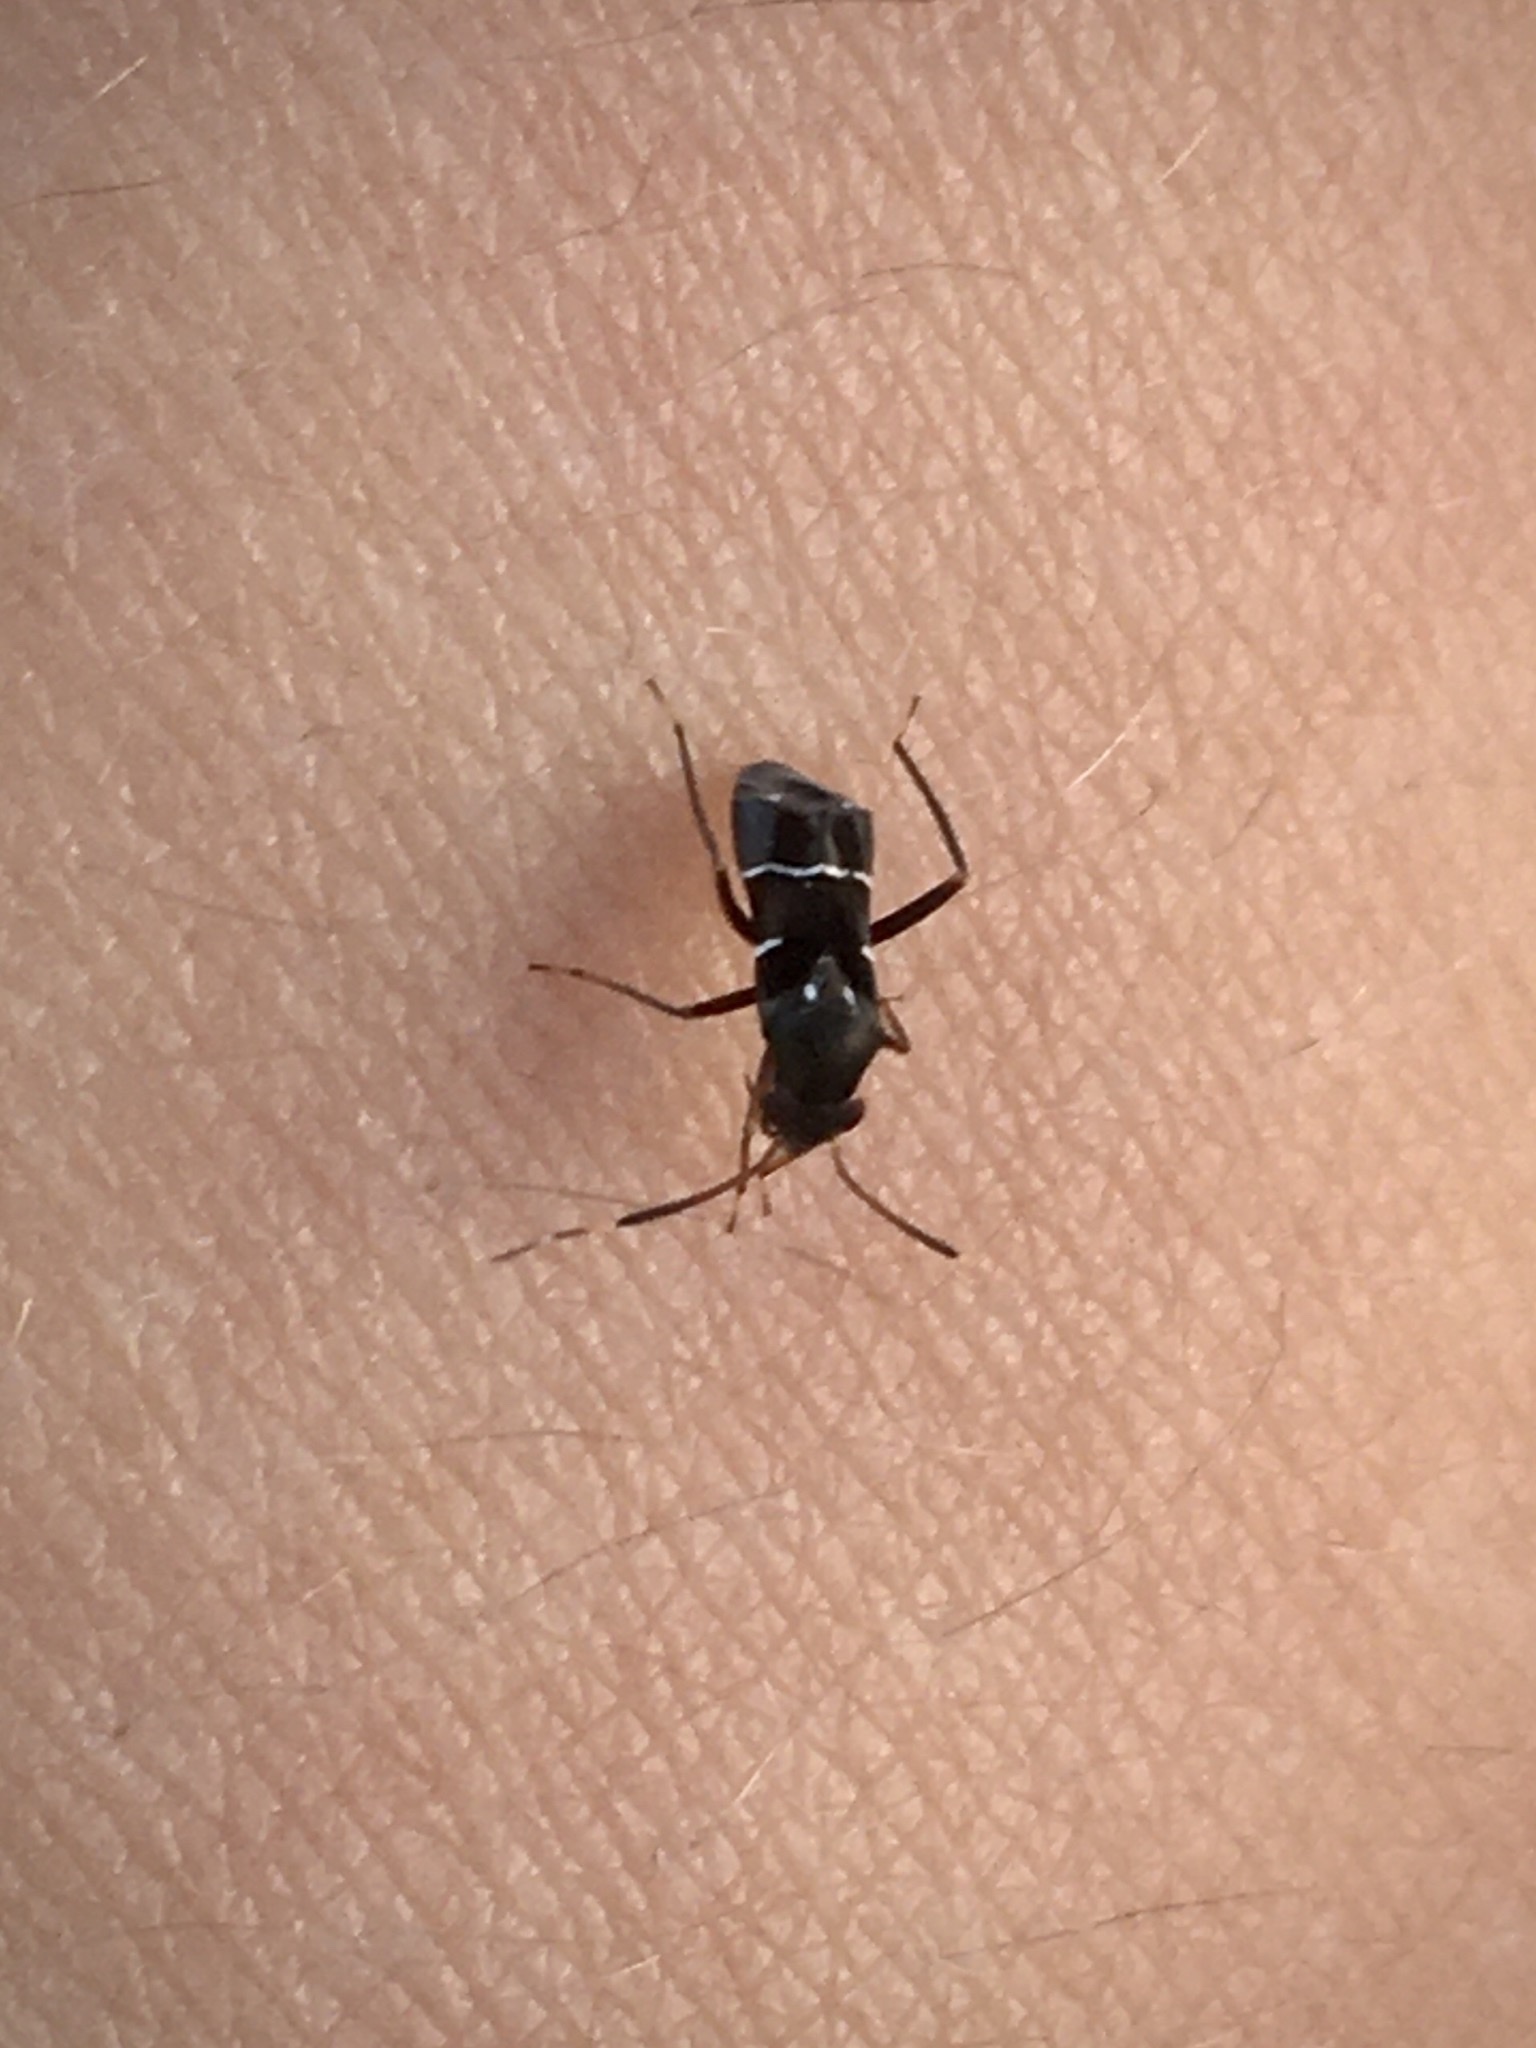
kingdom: Animalia
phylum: Arthropoda
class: Insecta
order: Hemiptera
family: Miridae
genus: Pilophorus
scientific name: Pilophorus
